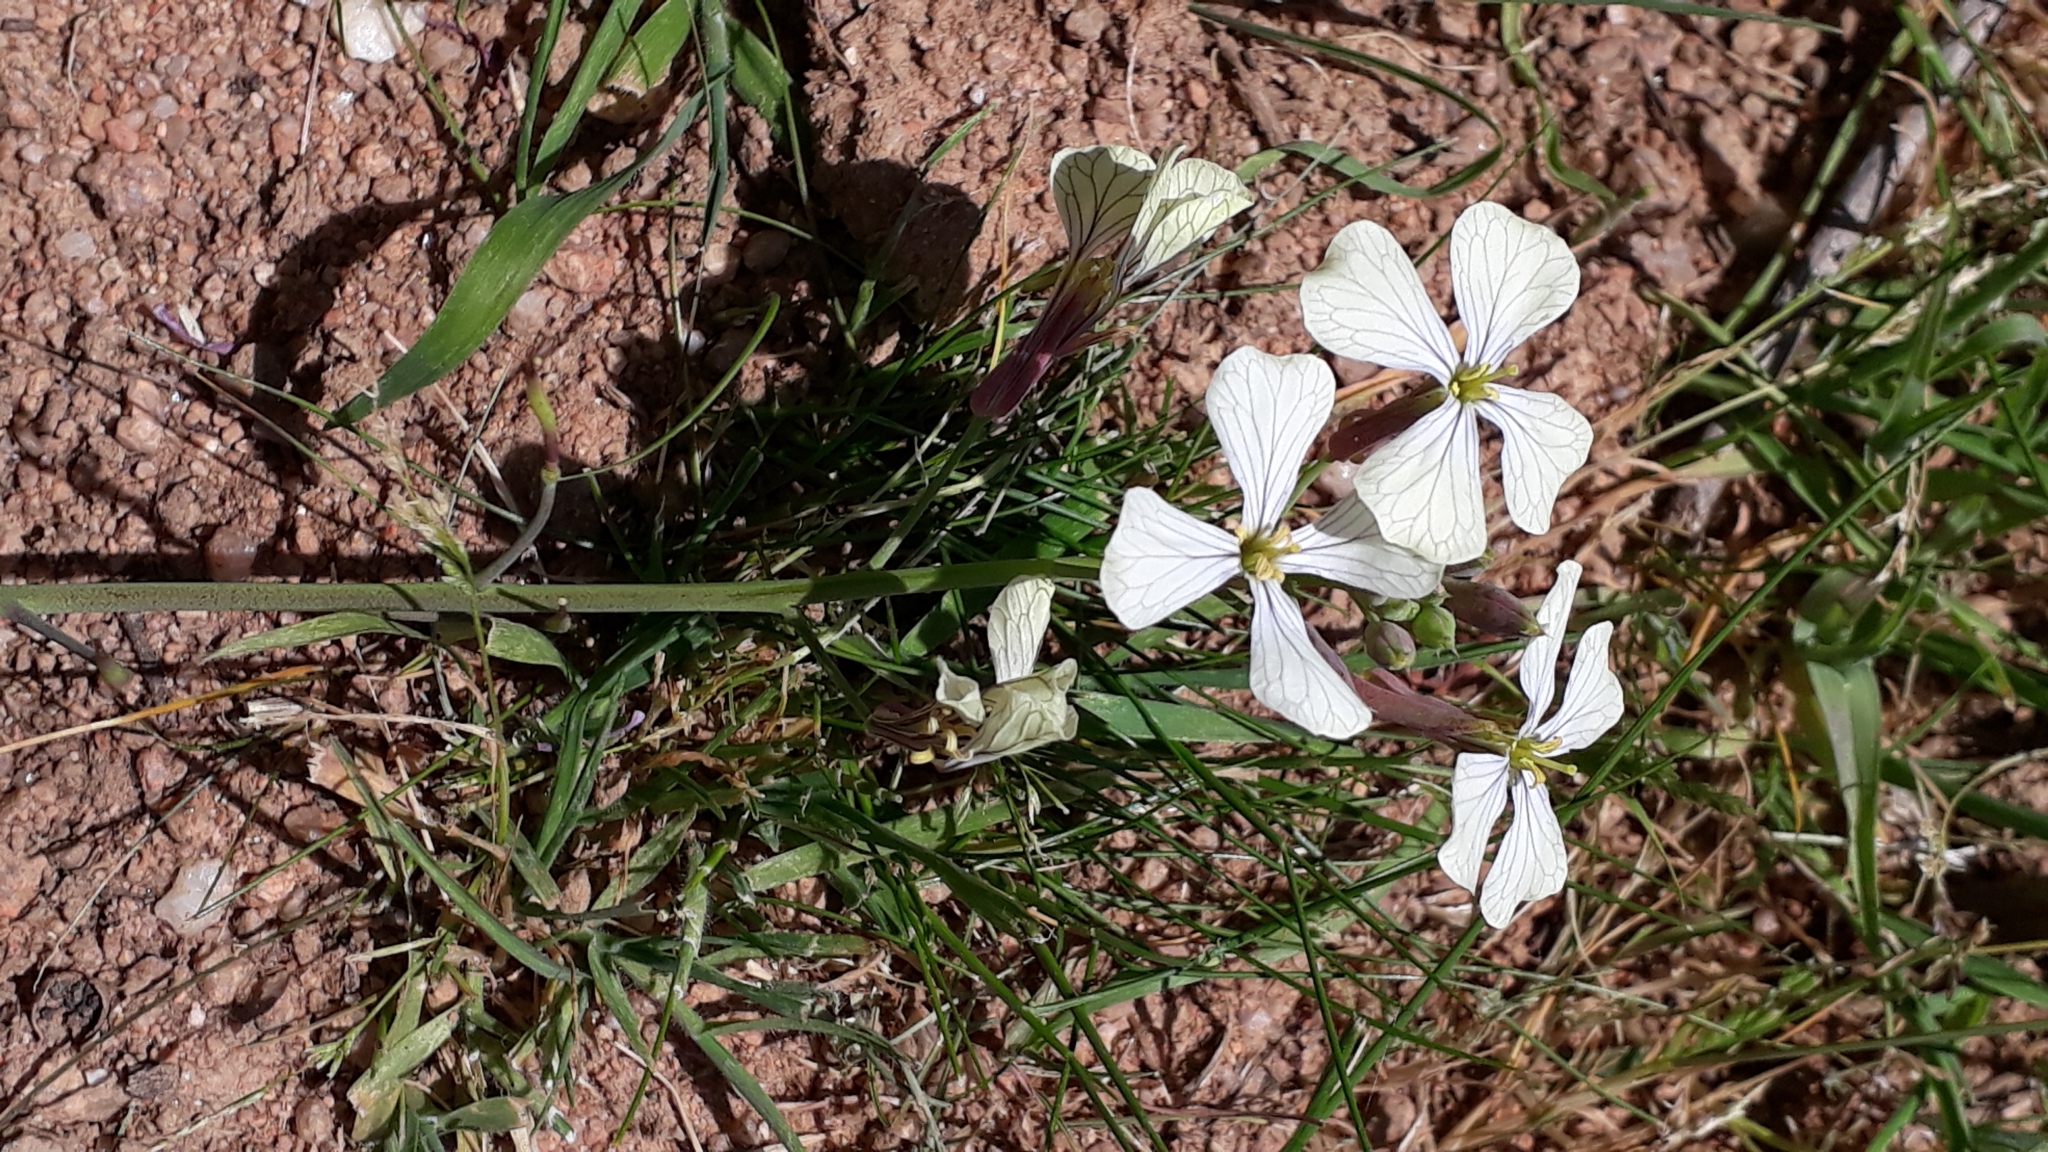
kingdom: Plantae
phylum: Tracheophyta
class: Magnoliopsida
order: Brassicales
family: Brassicaceae
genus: Raphanus
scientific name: Raphanus raphanistrum
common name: Wild radish
